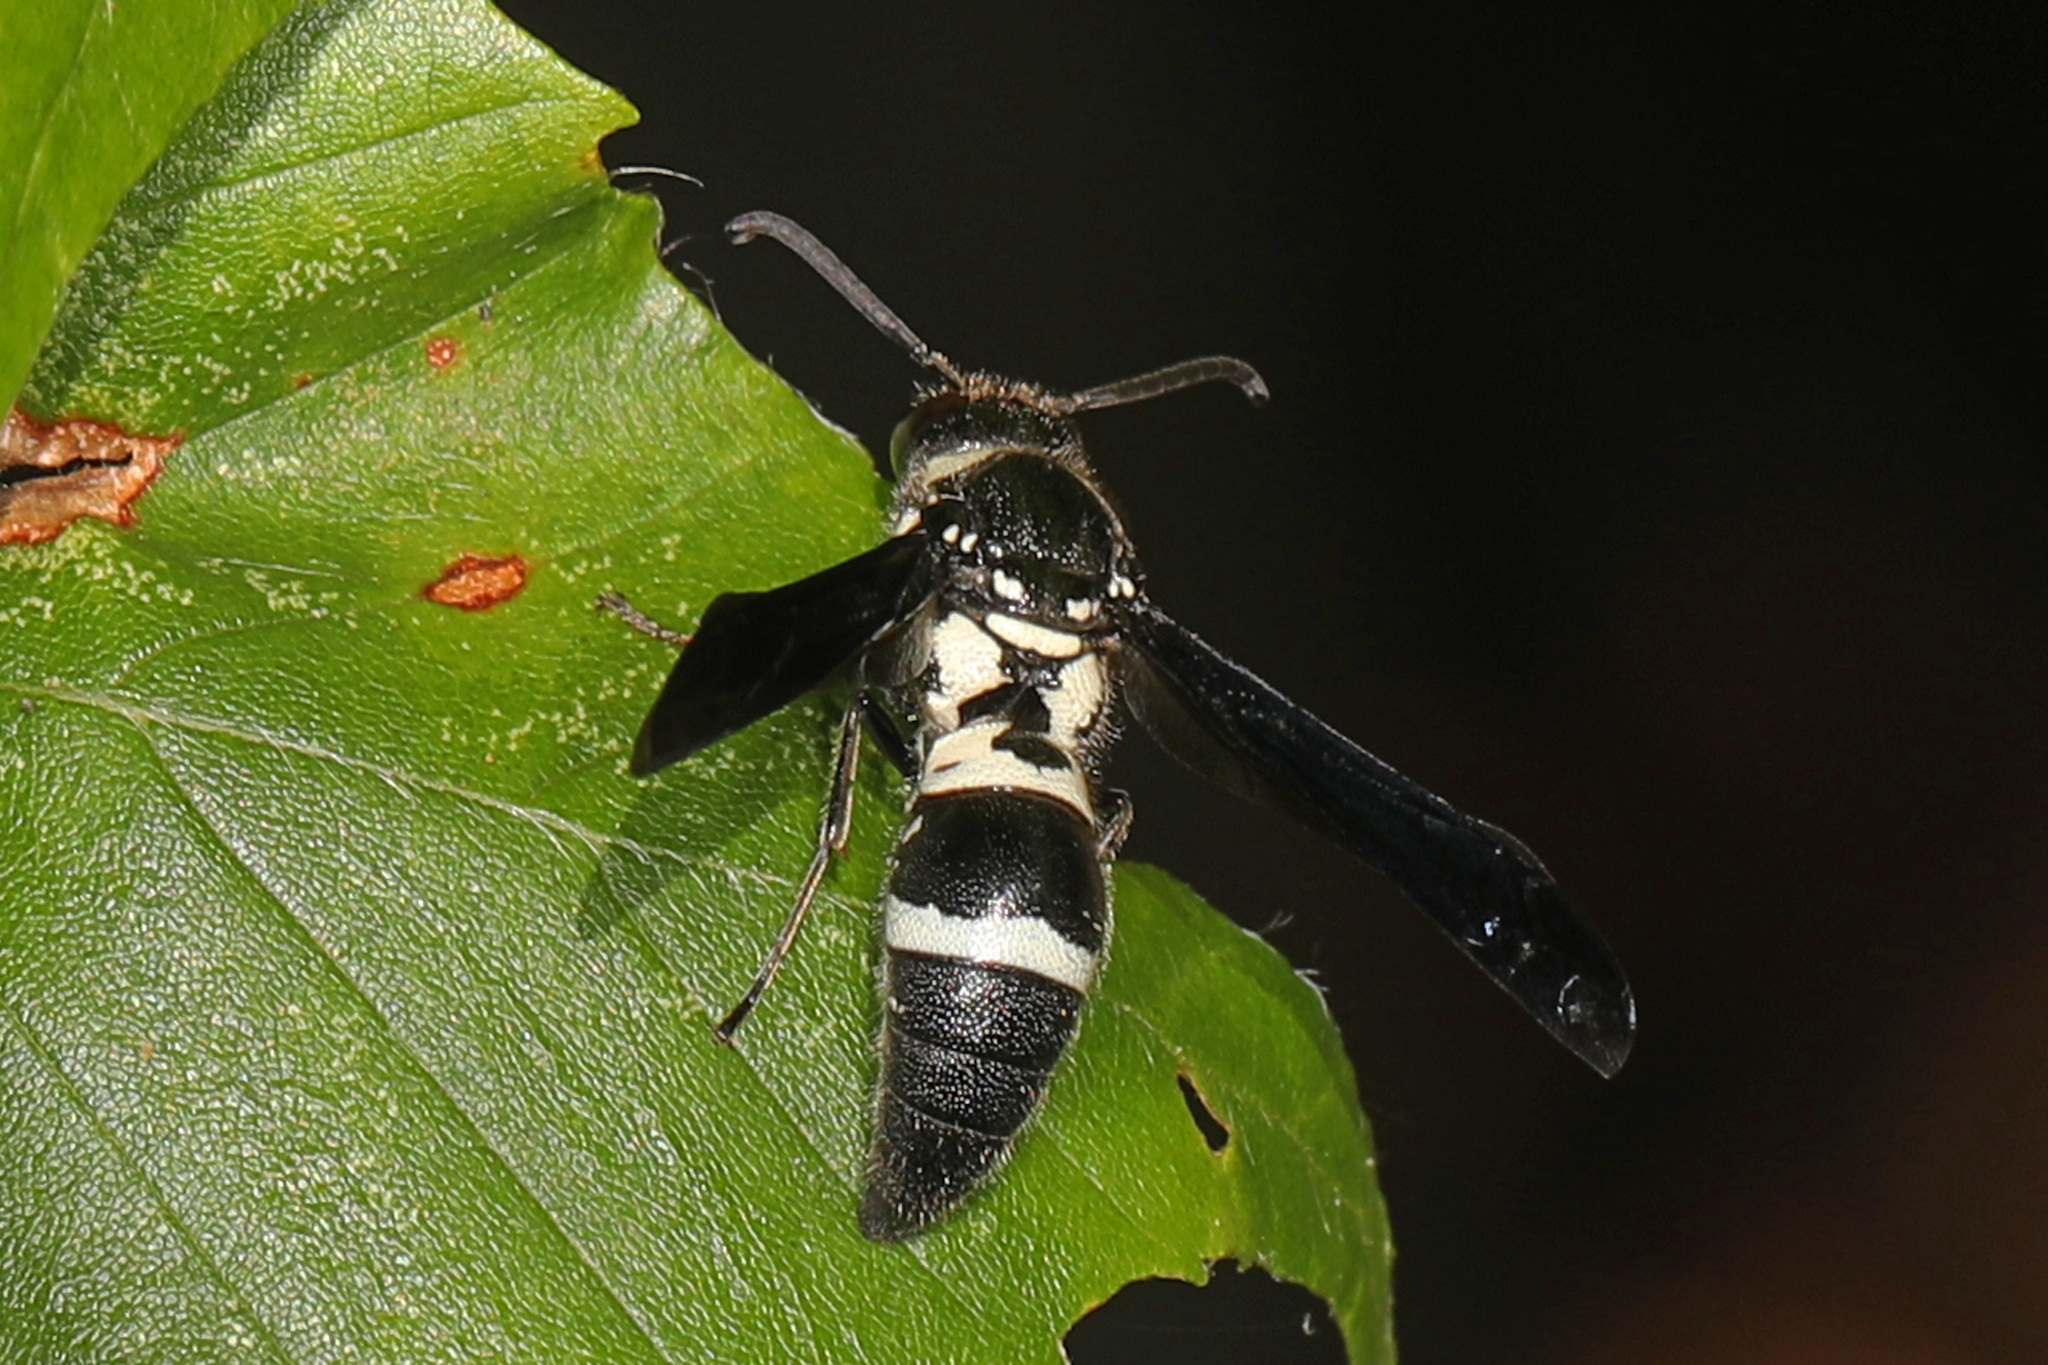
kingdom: Animalia
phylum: Arthropoda
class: Insecta
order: Hymenoptera
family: Eumenidae
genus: Pseudodynerus
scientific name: Pseudodynerus quadrisectus
